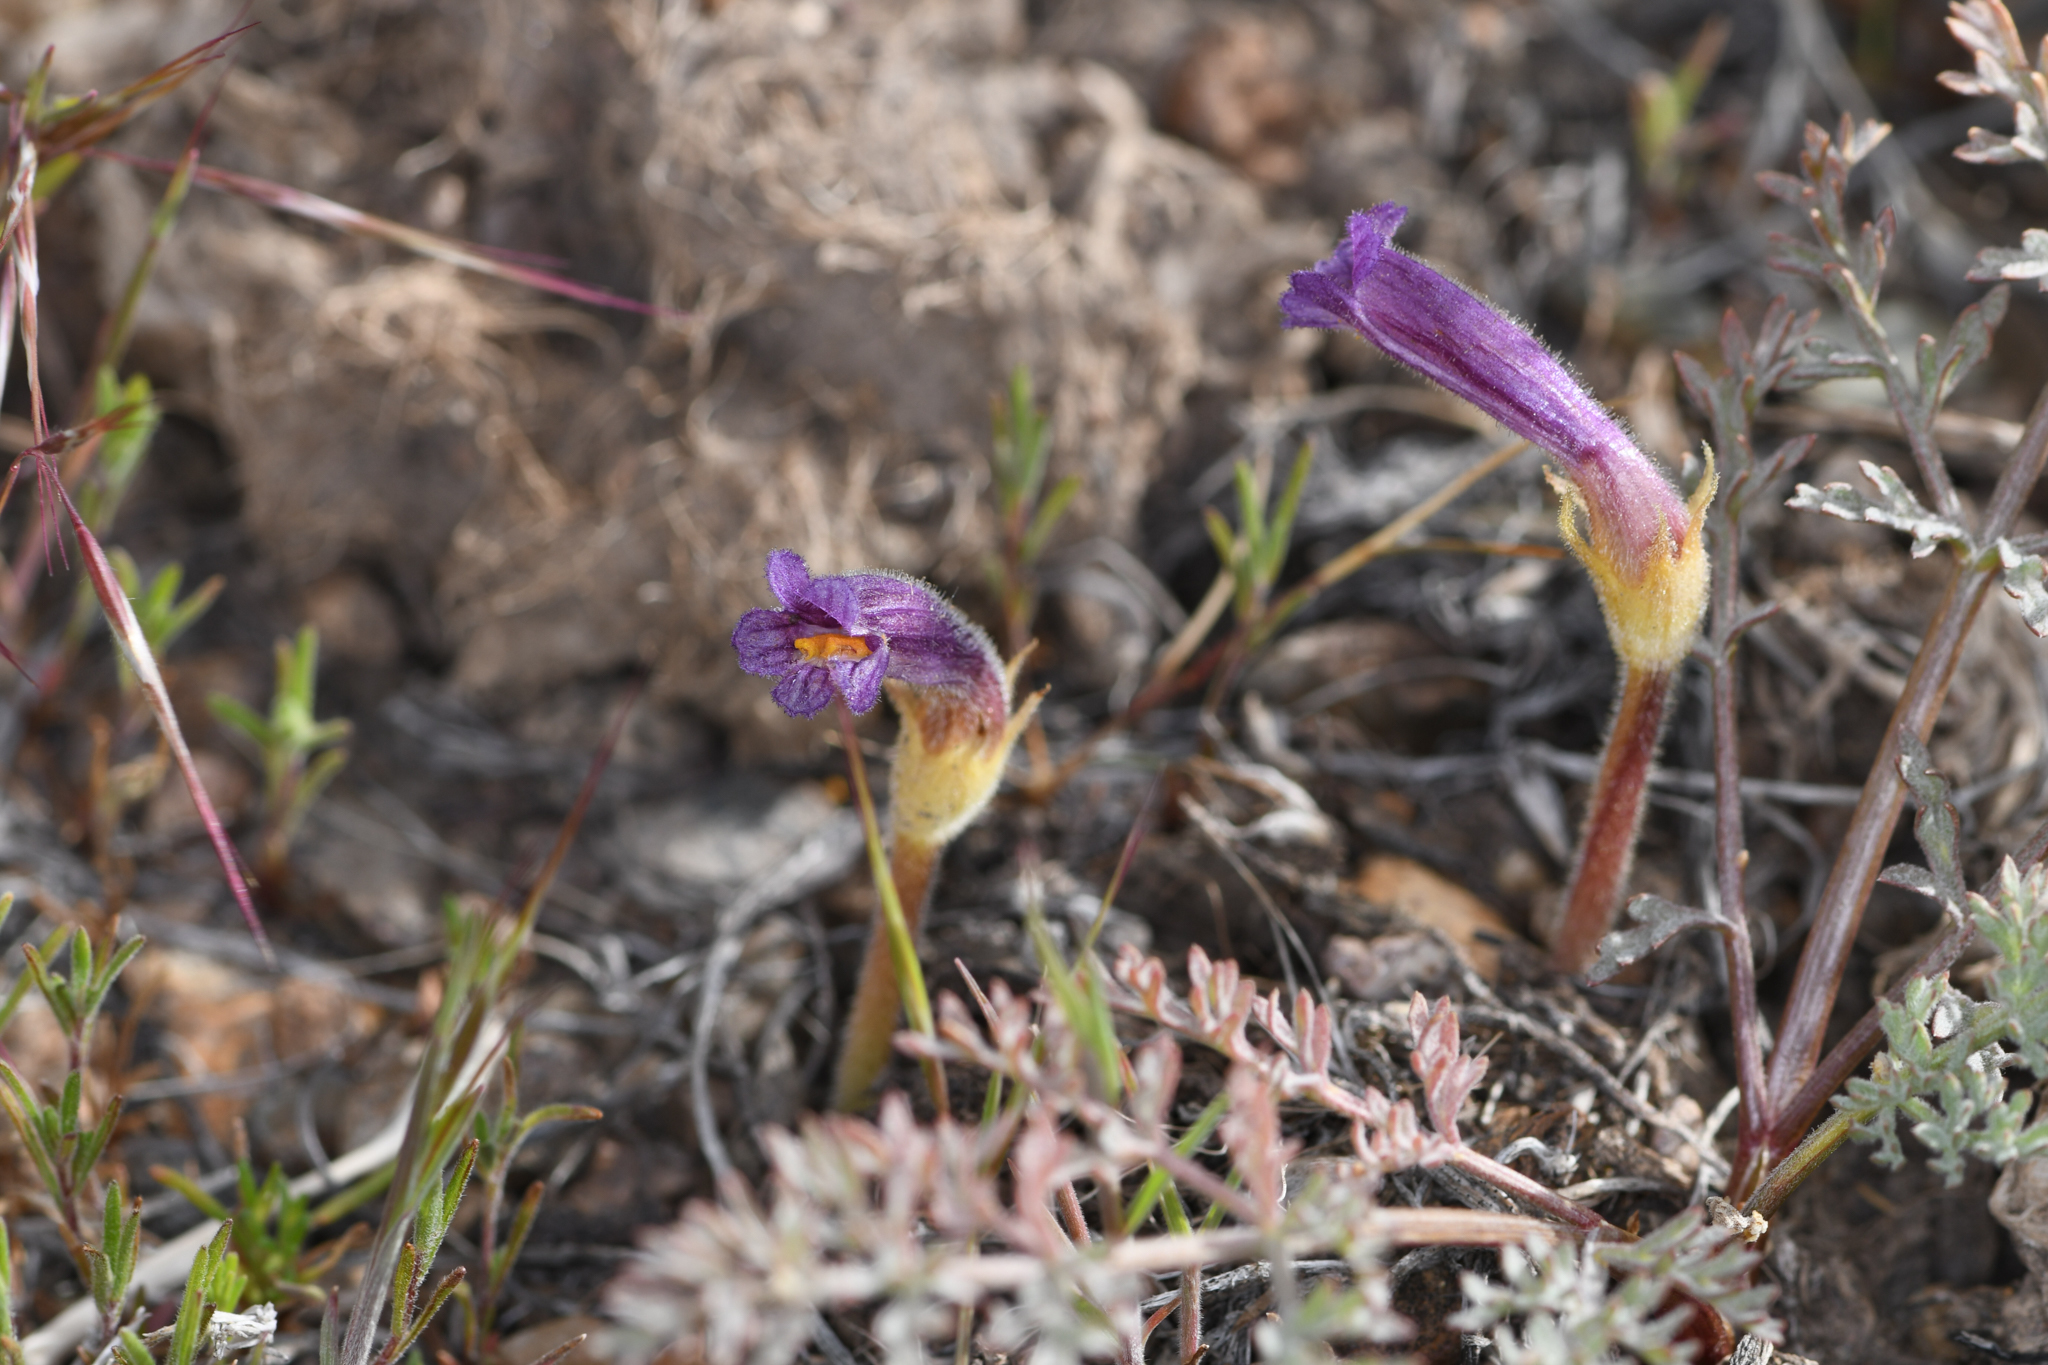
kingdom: Plantae
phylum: Tracheophyta
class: Magnoliopsida
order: Lamiales
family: Orobanchaceae
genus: Aphyllon
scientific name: Aphyllon uniflorum
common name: One-flowered broomrape
